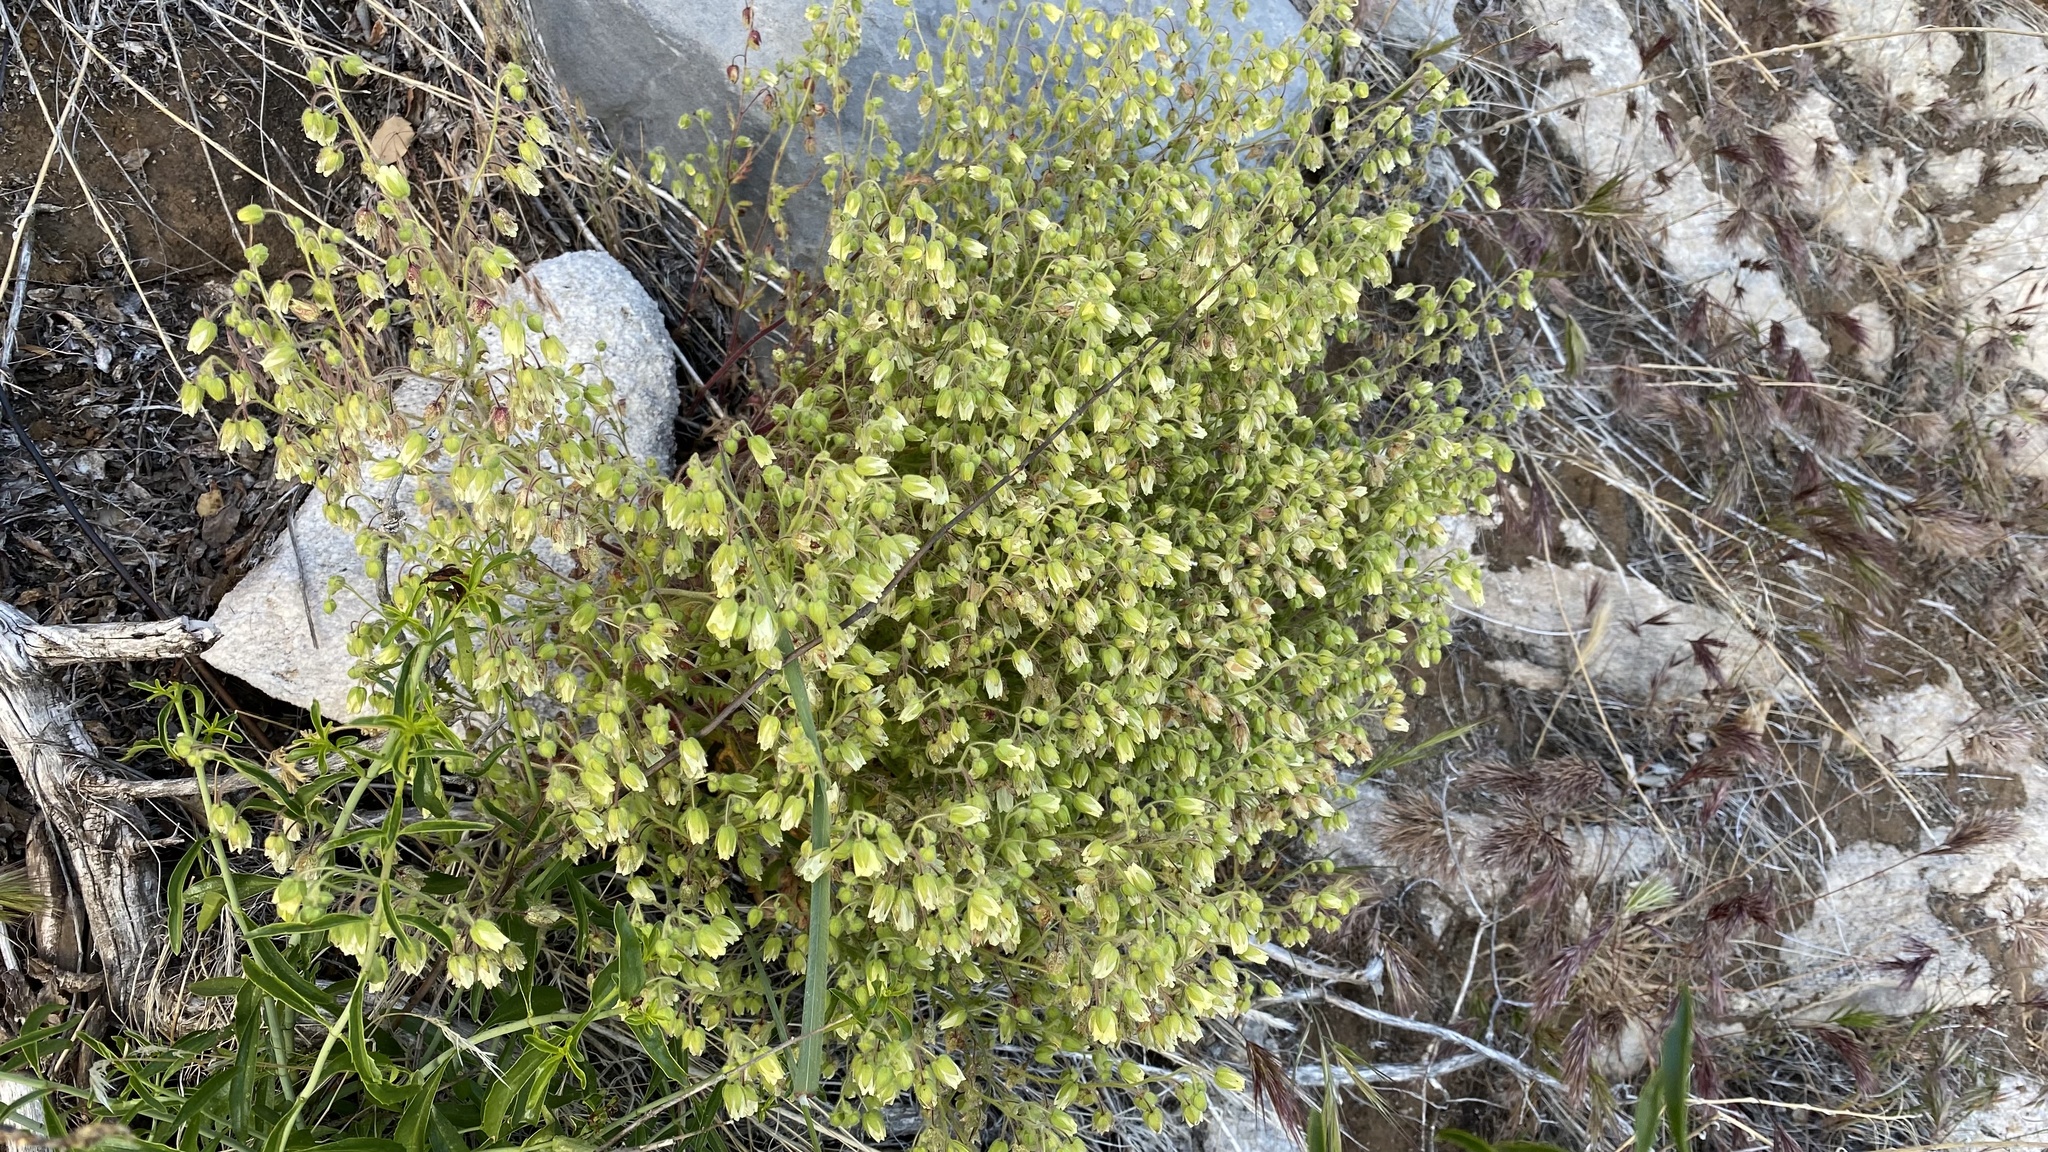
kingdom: Plantae
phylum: Tracheophyta
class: Magnoliopsida
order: Boraginales
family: Hydrophyllaceae
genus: Emmenanthe
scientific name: Emmenanthe penduliflora
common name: Whispering-bells
